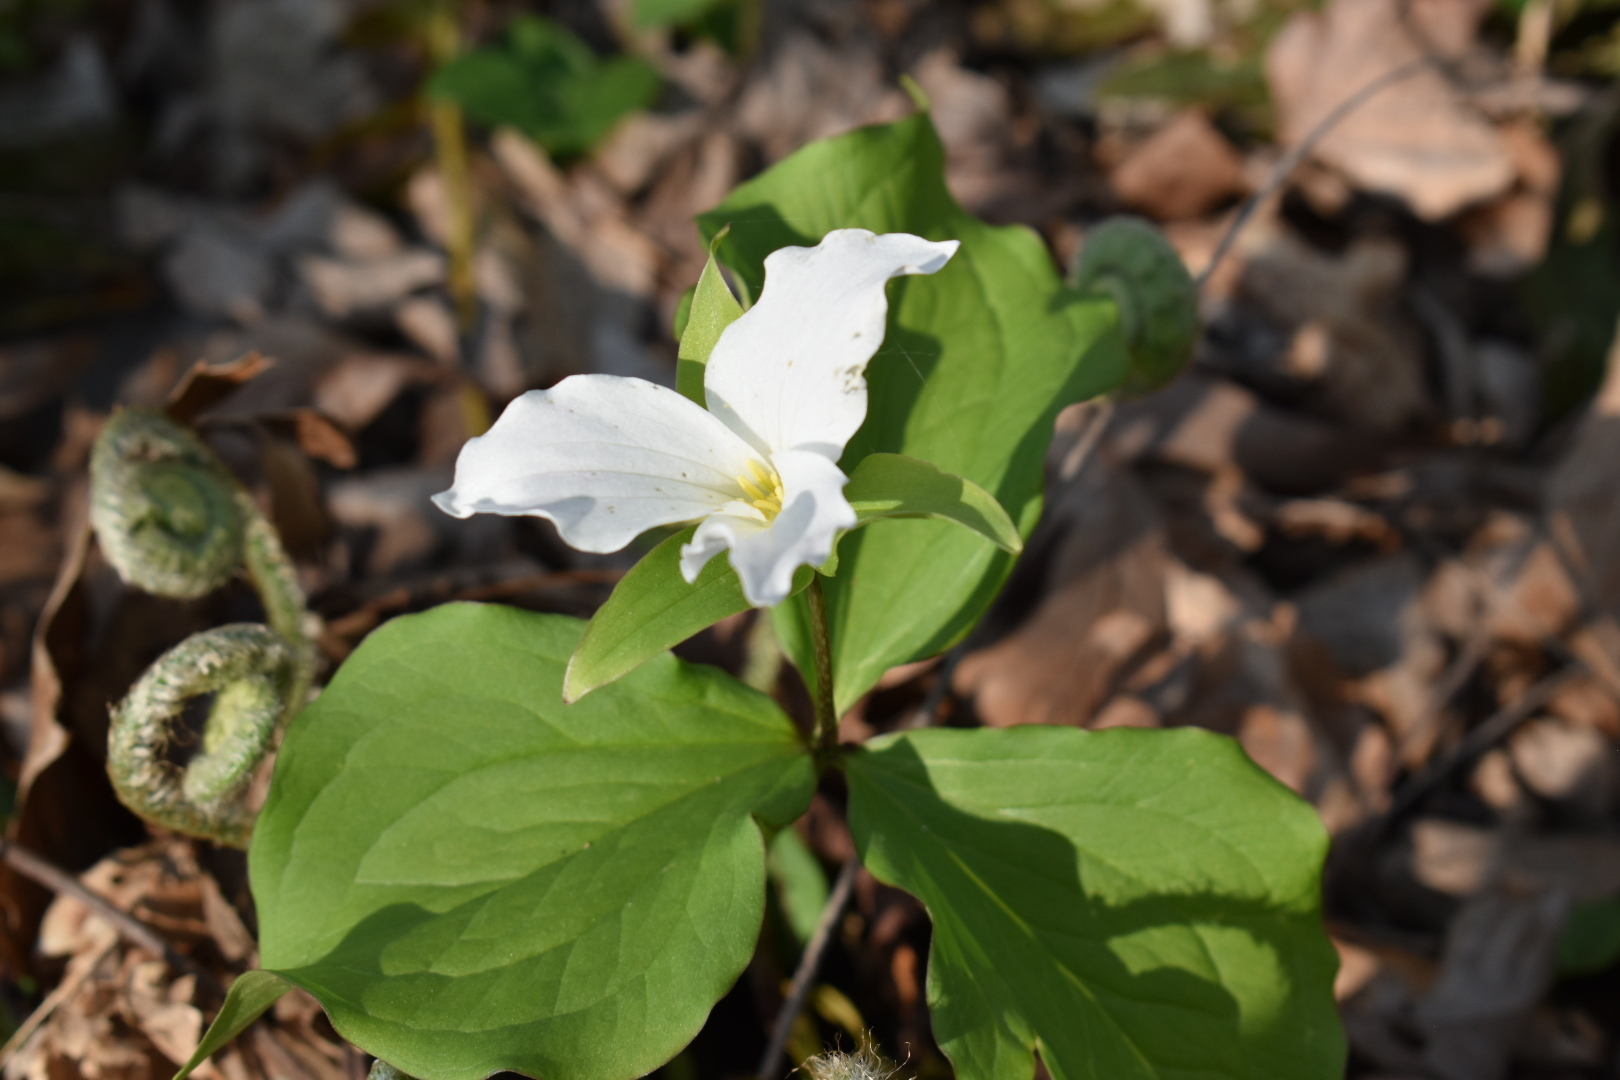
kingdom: Plantae
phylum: Tracheophyta
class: Liliopsida
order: Liliales
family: Melanthiaceae
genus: Trillium
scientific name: Trillium grandiflorum
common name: Great white trillium
